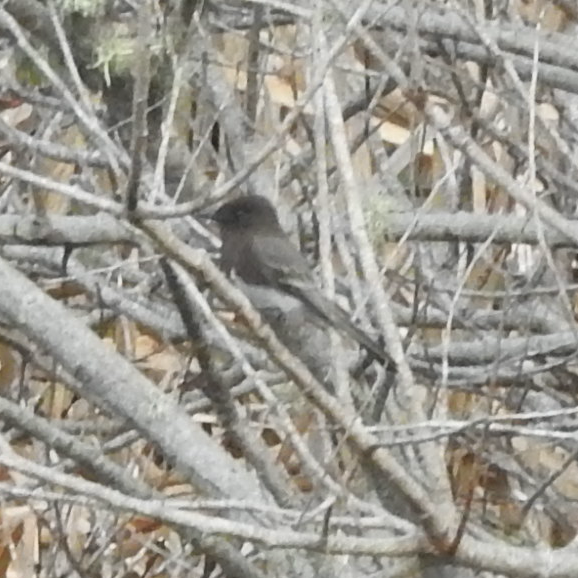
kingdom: Animalia
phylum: Chordata
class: Aves
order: Passeriformes
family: Tyrannidae
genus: Sayornis
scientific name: Sayornis nigricans
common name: Black phoebe
